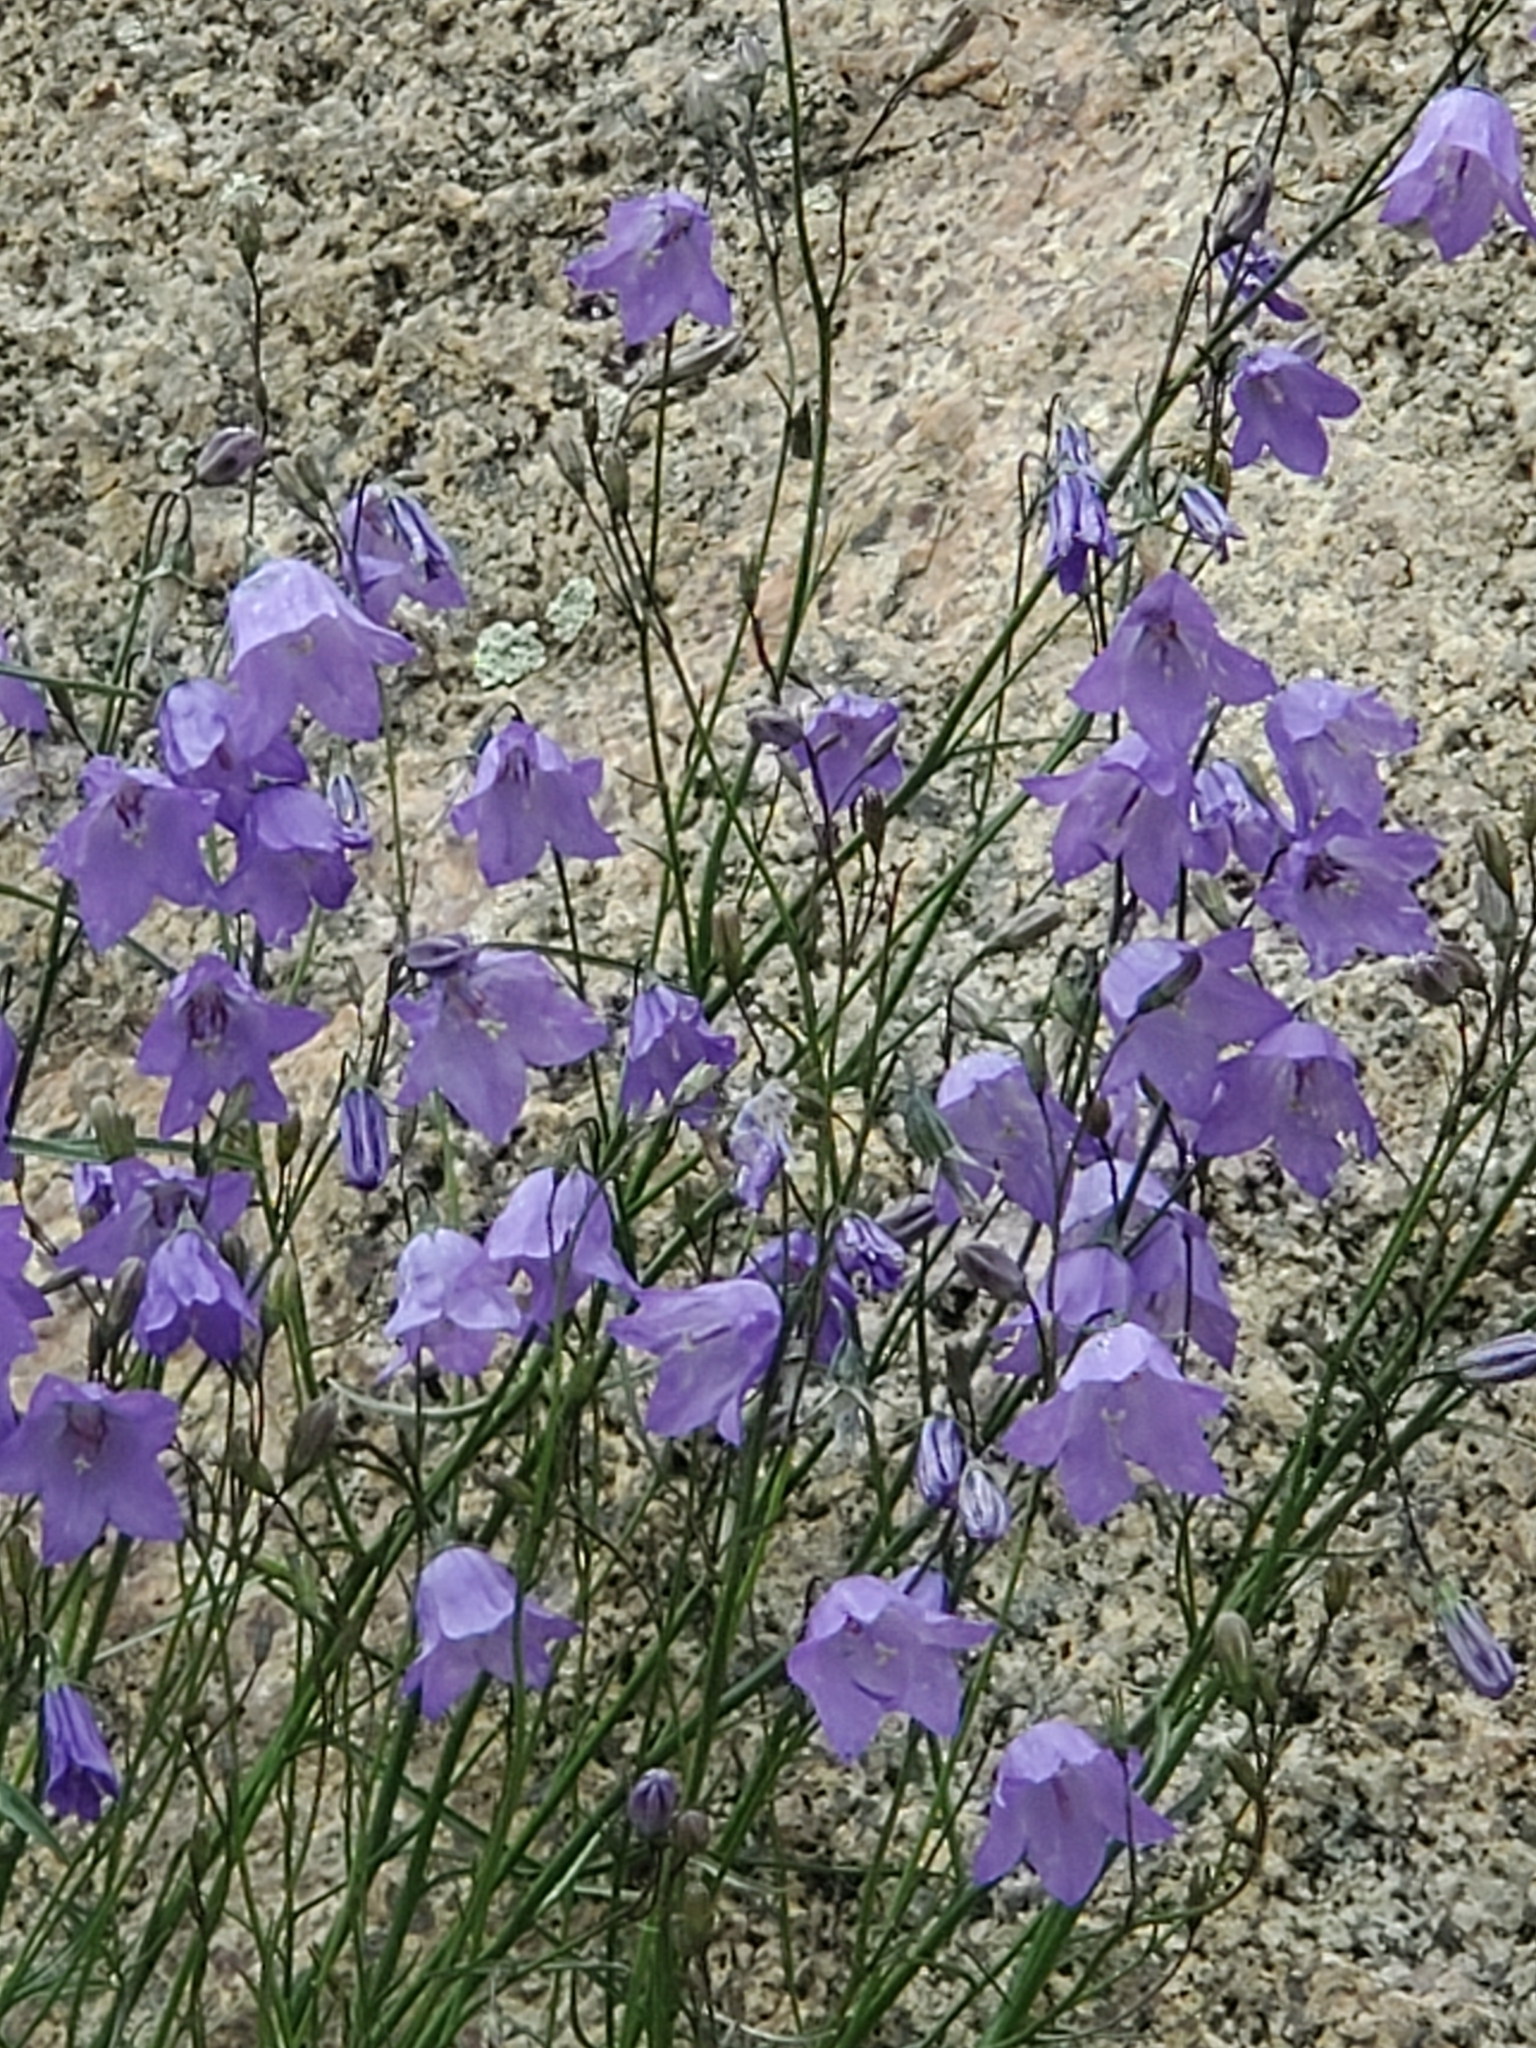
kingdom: Plantae
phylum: Tracheophyta
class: Magnoliopsida
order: Asterales
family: Campanulaceae
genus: Campanula
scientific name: Campanula petiolata
